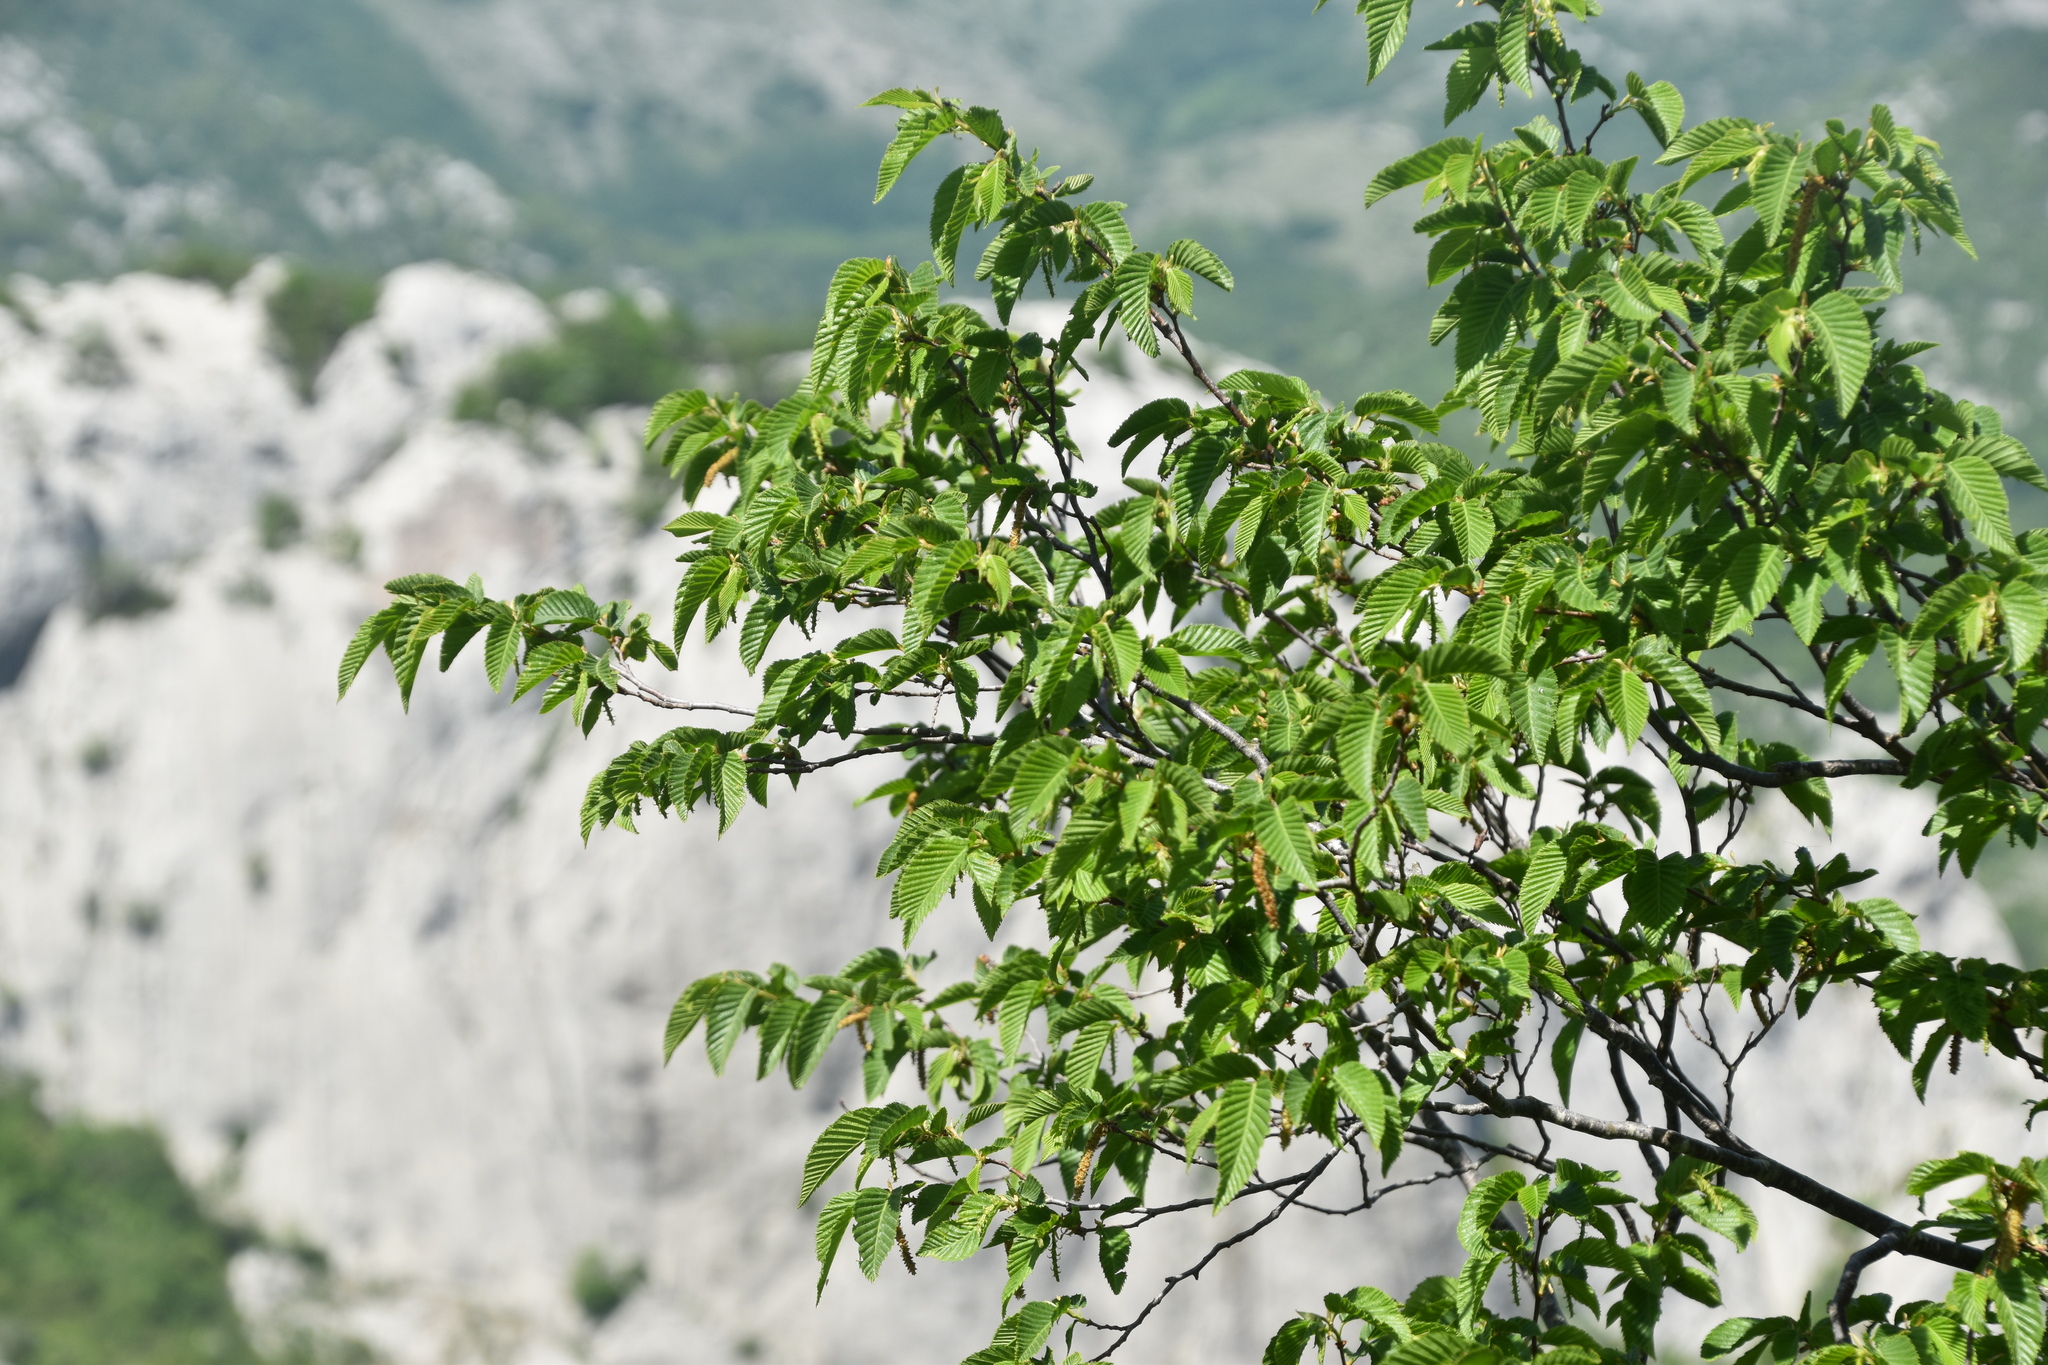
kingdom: Plantae
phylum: Tracheophyta
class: Magnoliopsida
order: Fagales
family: Betulaceae
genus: Ostrya
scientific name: Ostrya carpinifolia
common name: European hop-hornbeam
